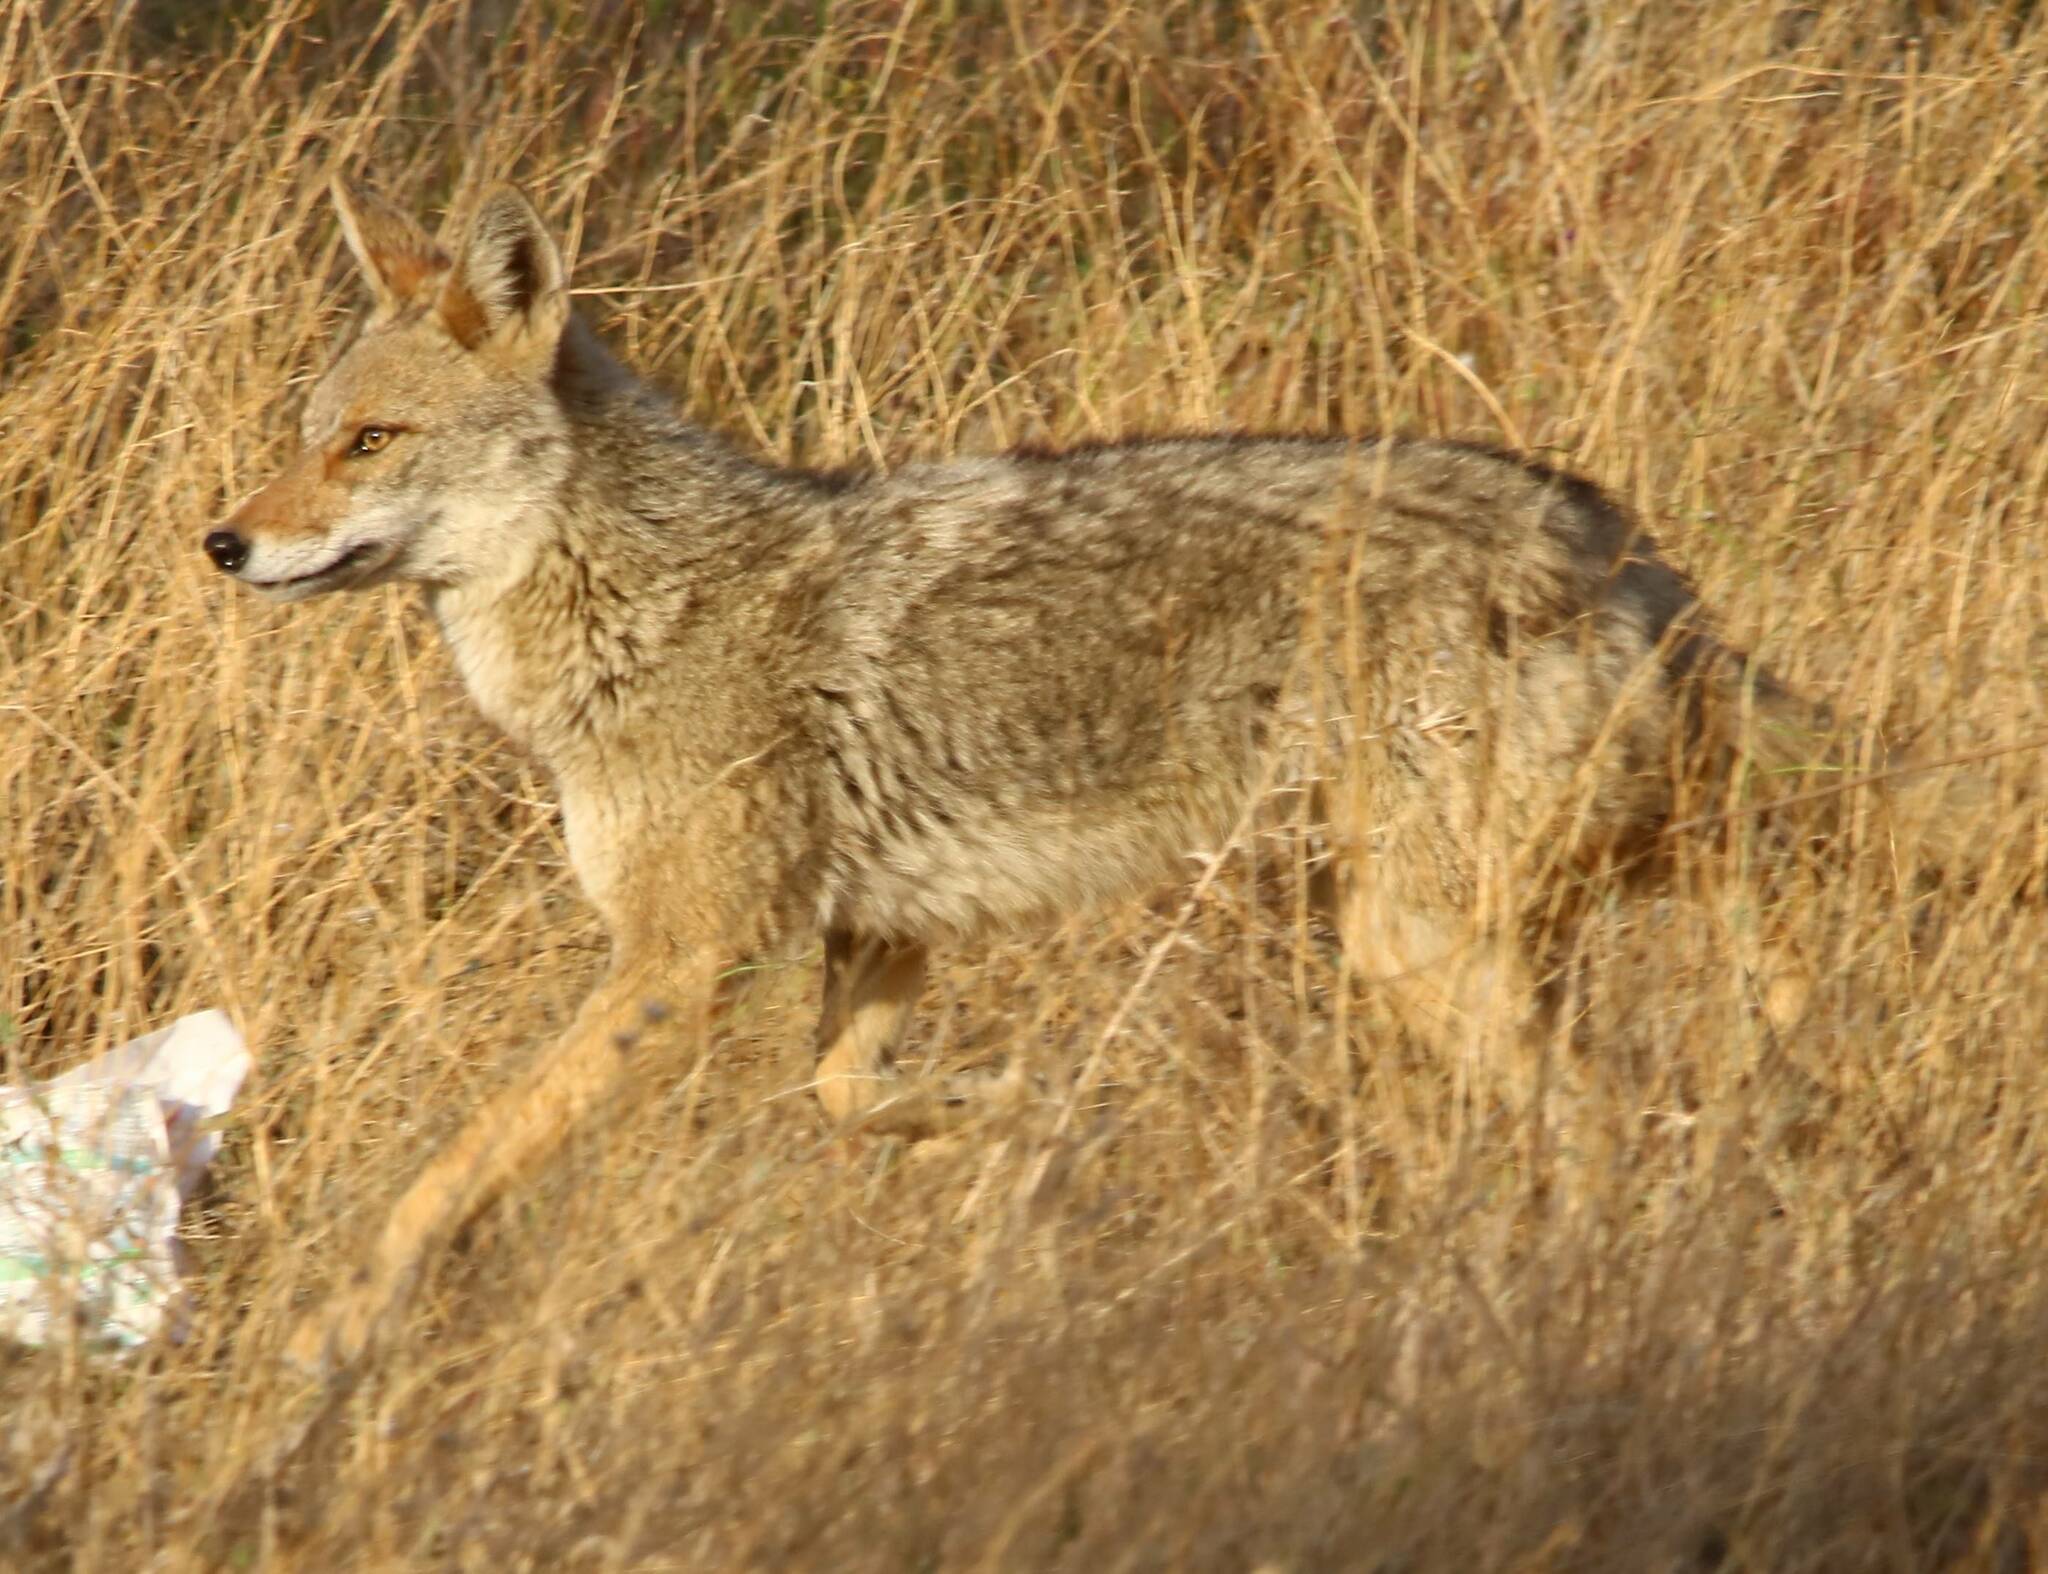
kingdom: Animalia
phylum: Chordata
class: Mammalia
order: Carnivora
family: Canidae
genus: Canis
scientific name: Canis lupaster
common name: African golden wolf
